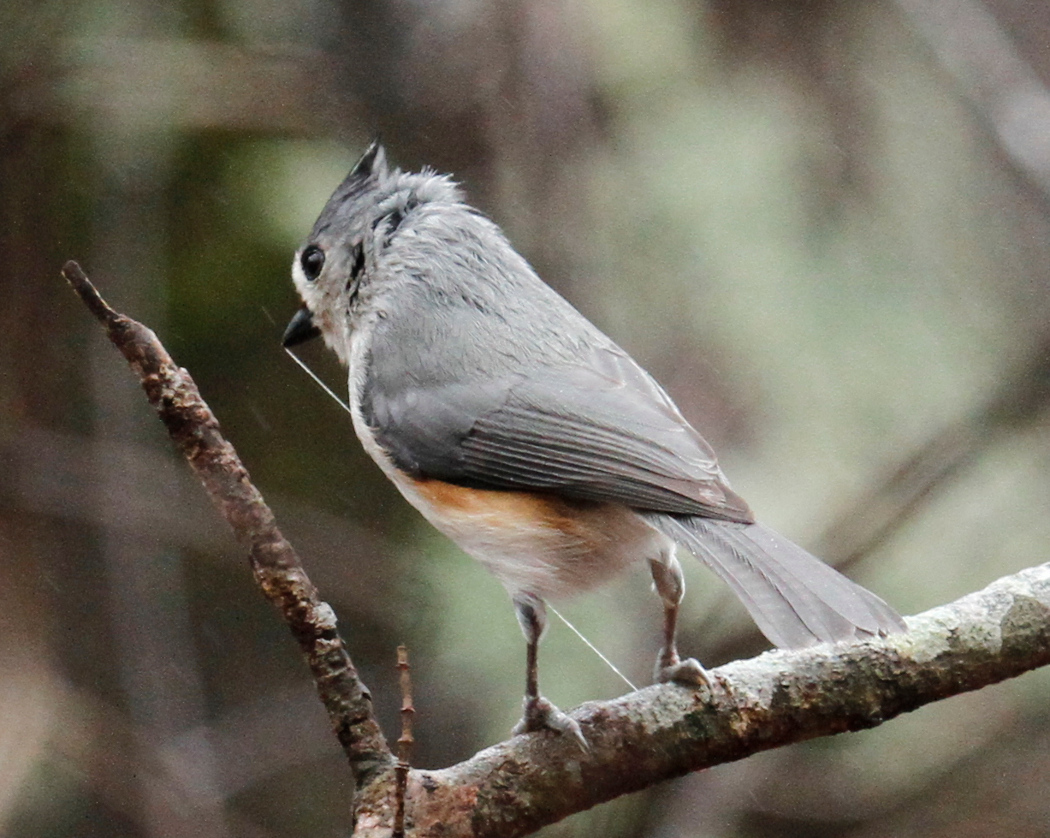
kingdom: Animalia
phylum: Chordata
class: Aves
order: Passeriformes
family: Paridae
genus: Baeolophus
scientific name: Baeolophus bicolor
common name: Tufted titmouse
